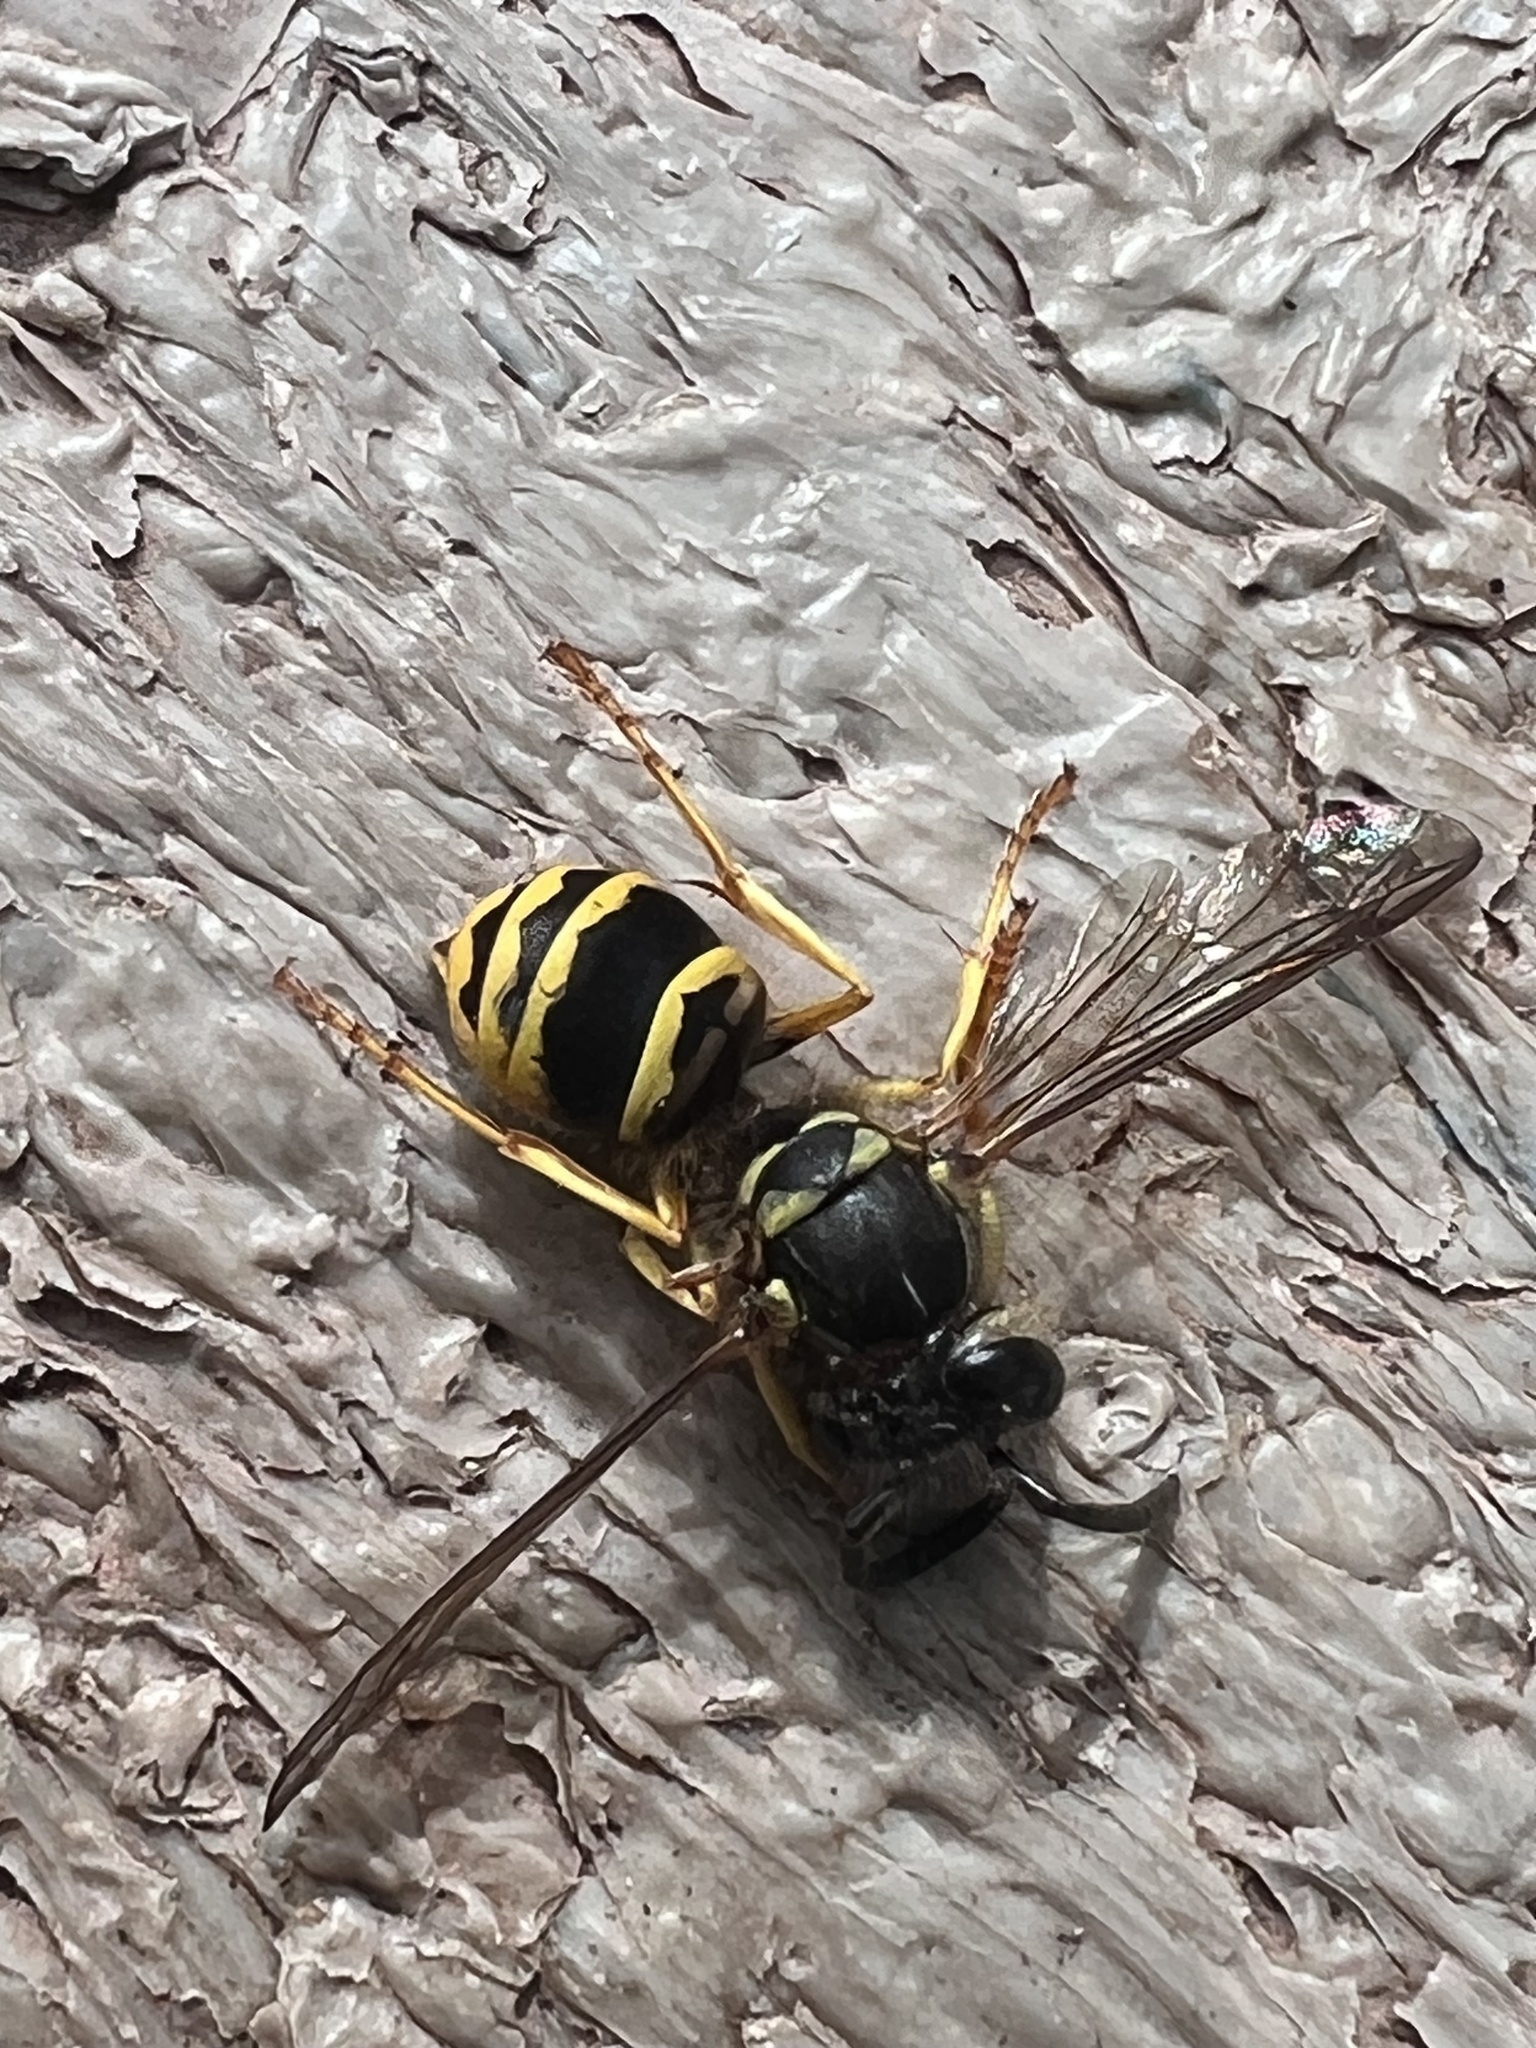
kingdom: Animalia
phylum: Arthropoda
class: Insecta
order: Hymenoptera
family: Vespidae
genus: Vespula
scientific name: Vespula maculifrons
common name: Eastern yellowjacket
